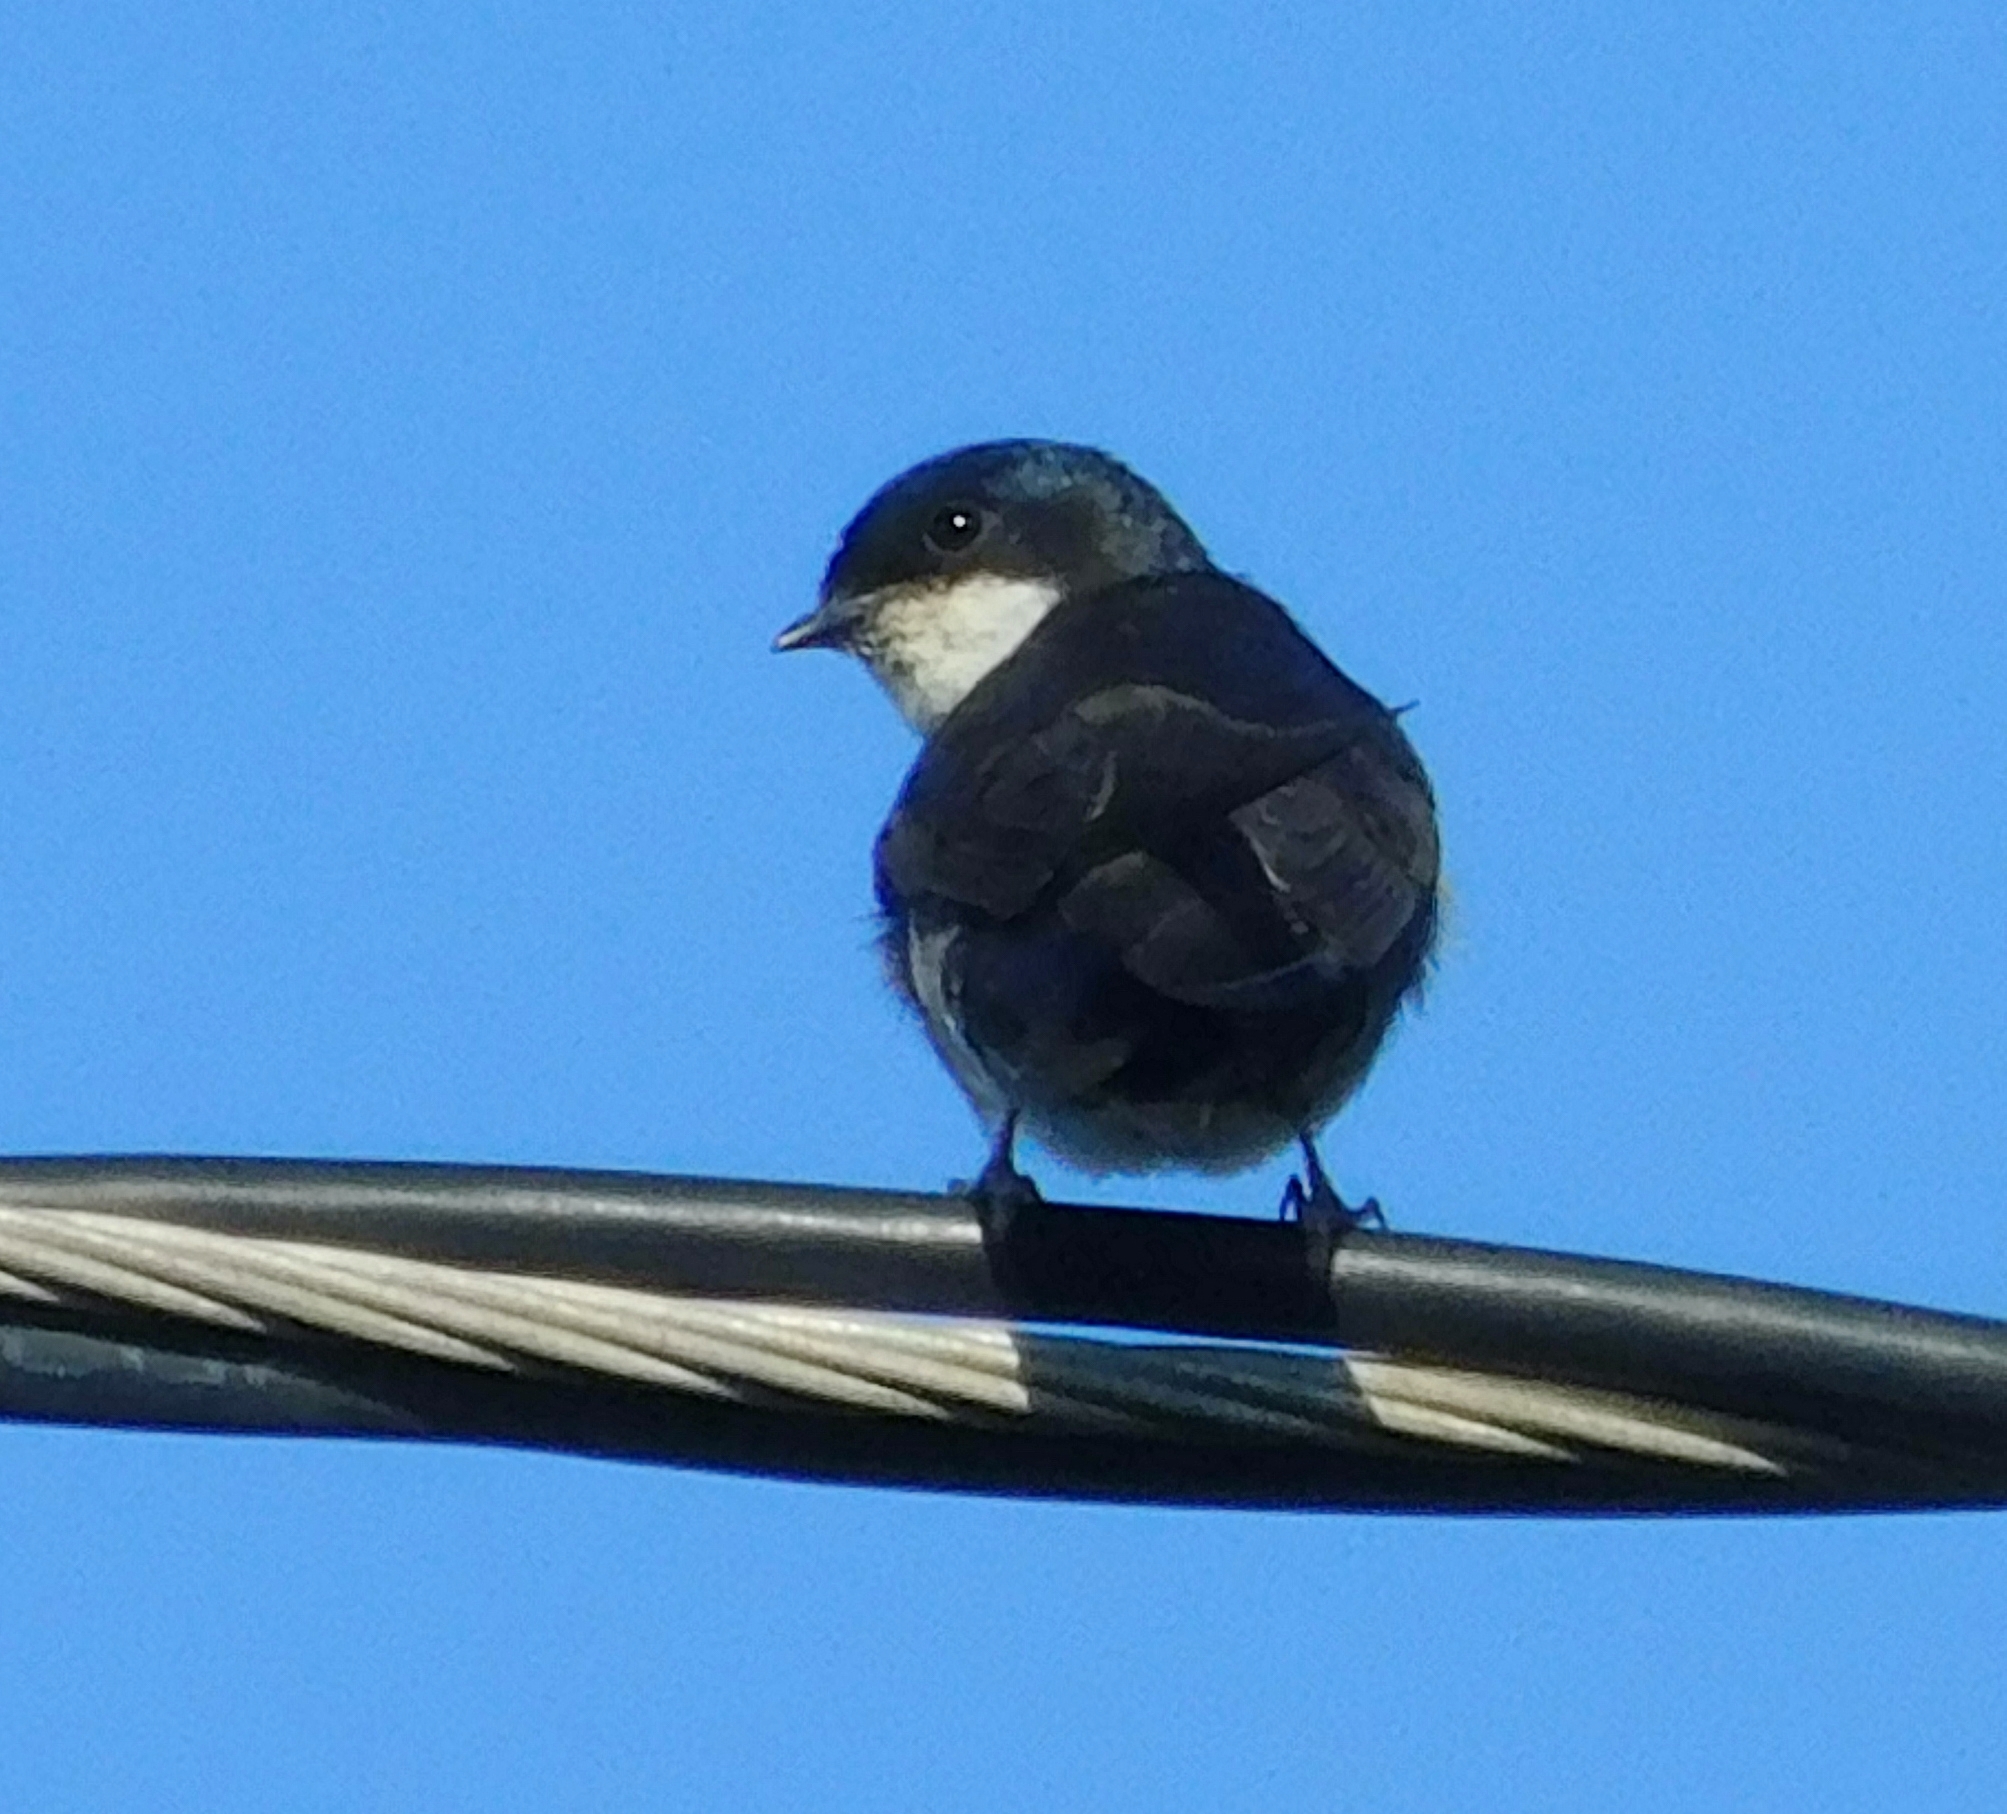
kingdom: Animalia
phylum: Chordata
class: Aves
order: Passeriformes
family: Hirundinidae
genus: Notiochelidon
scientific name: Notiochelidon cyanoleuca
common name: Blue-and-white swallow
